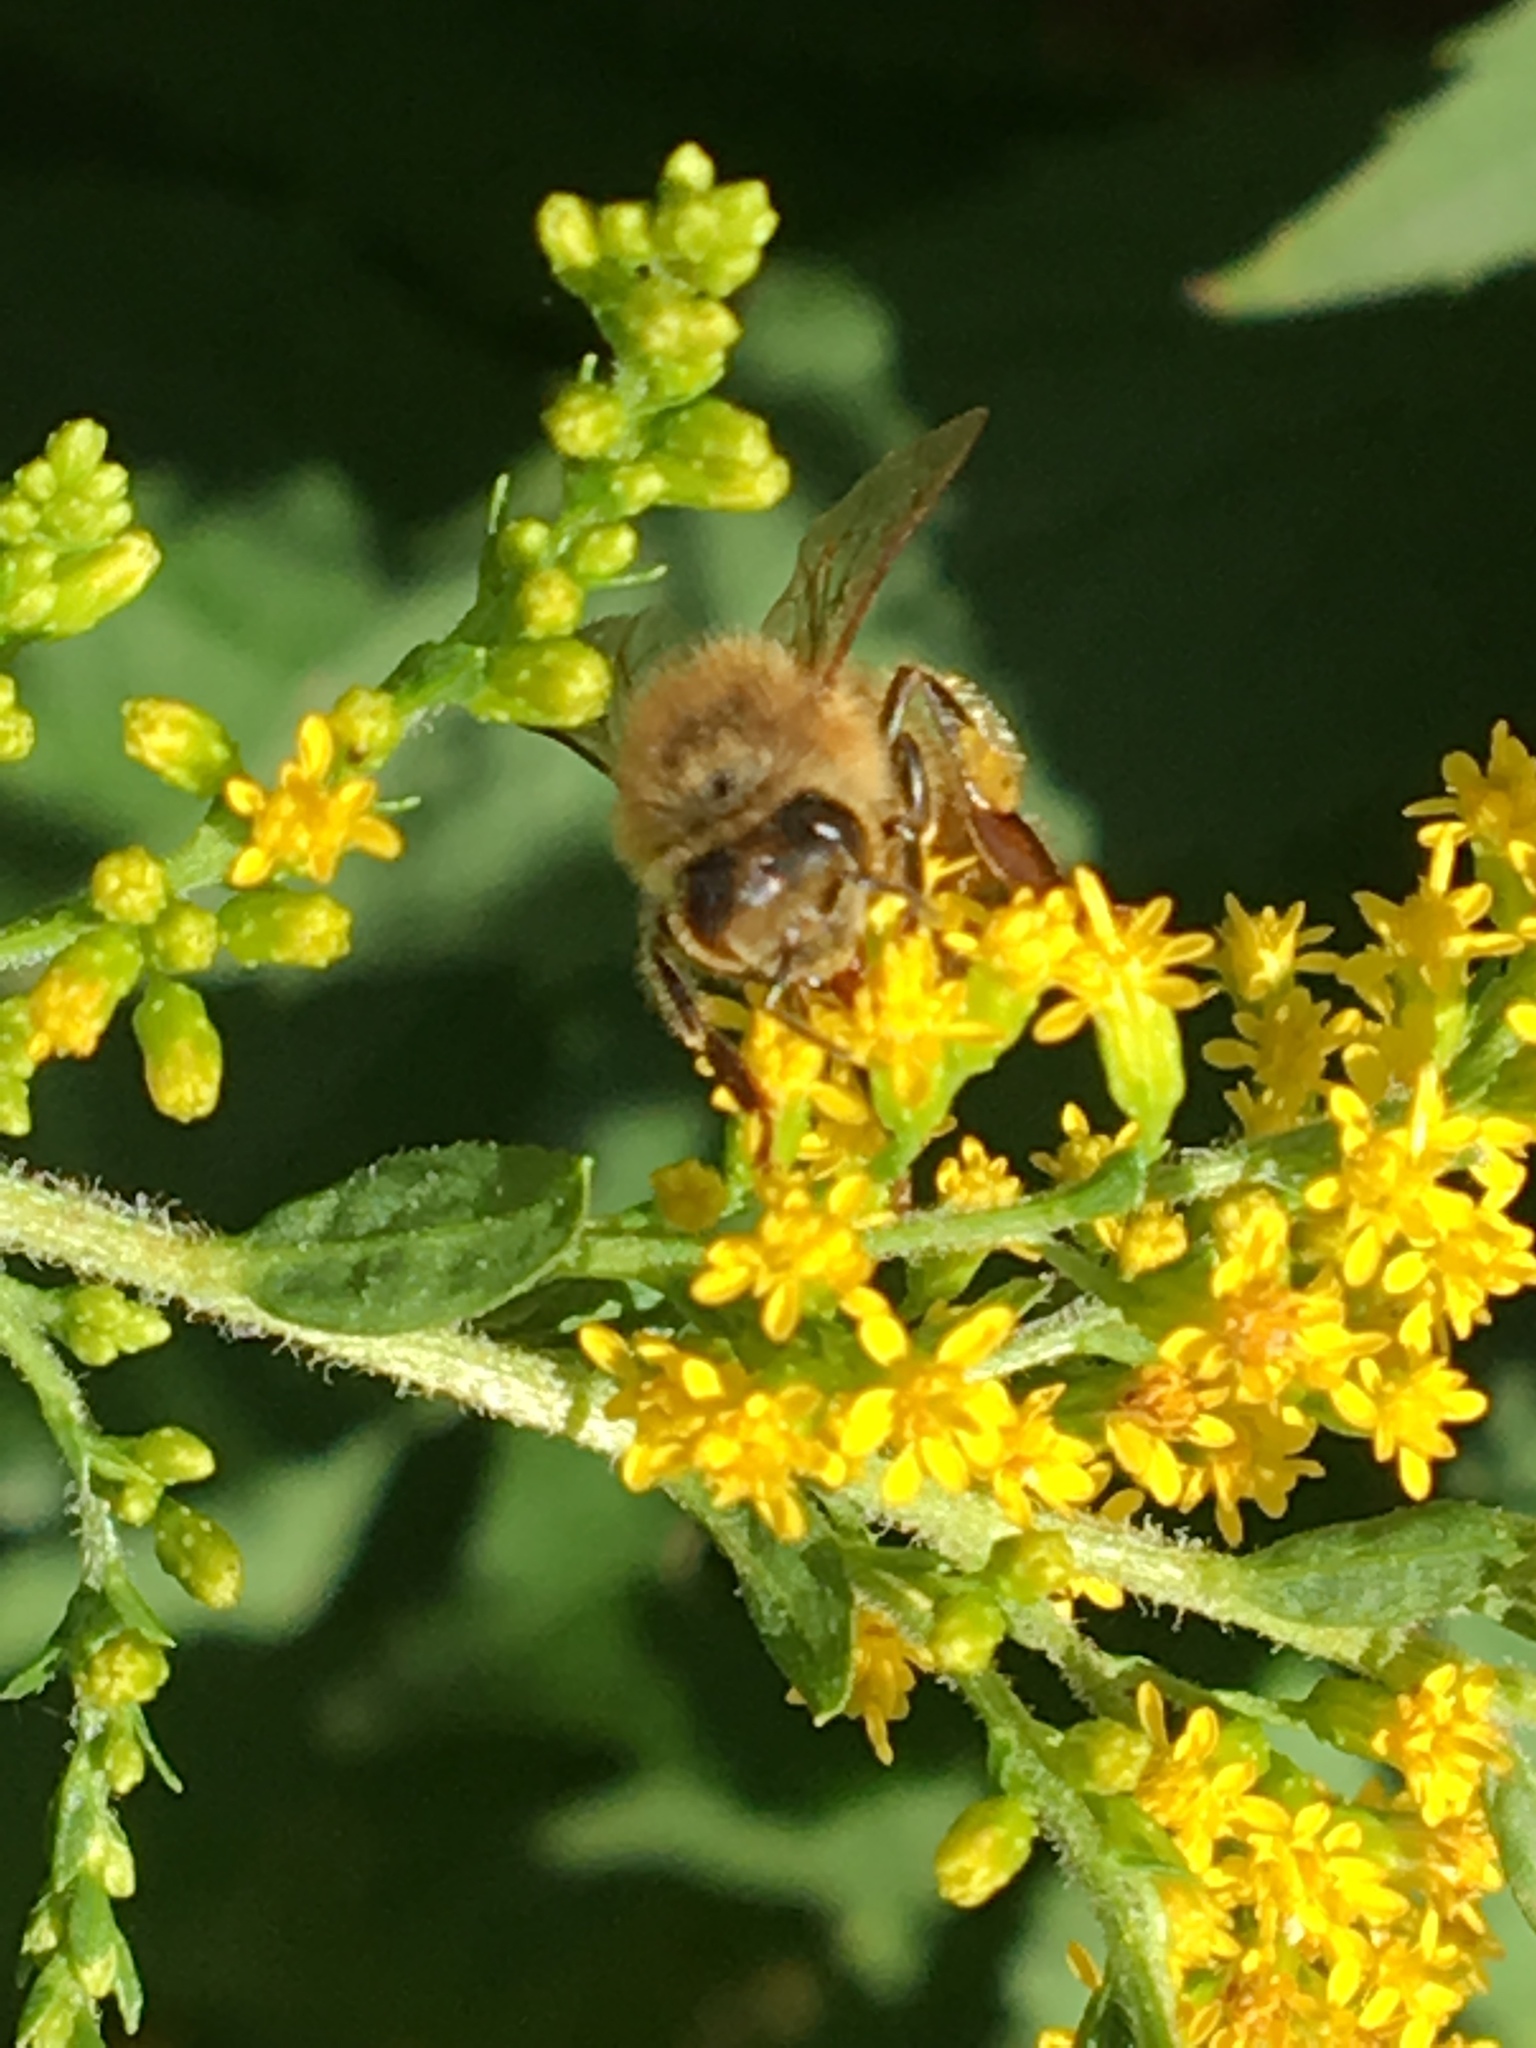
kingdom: Animalia
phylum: Arthropoda
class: Insecta
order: Hymenoptera
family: Apidae
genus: Apis
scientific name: Apis mellifera
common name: Honey bee
